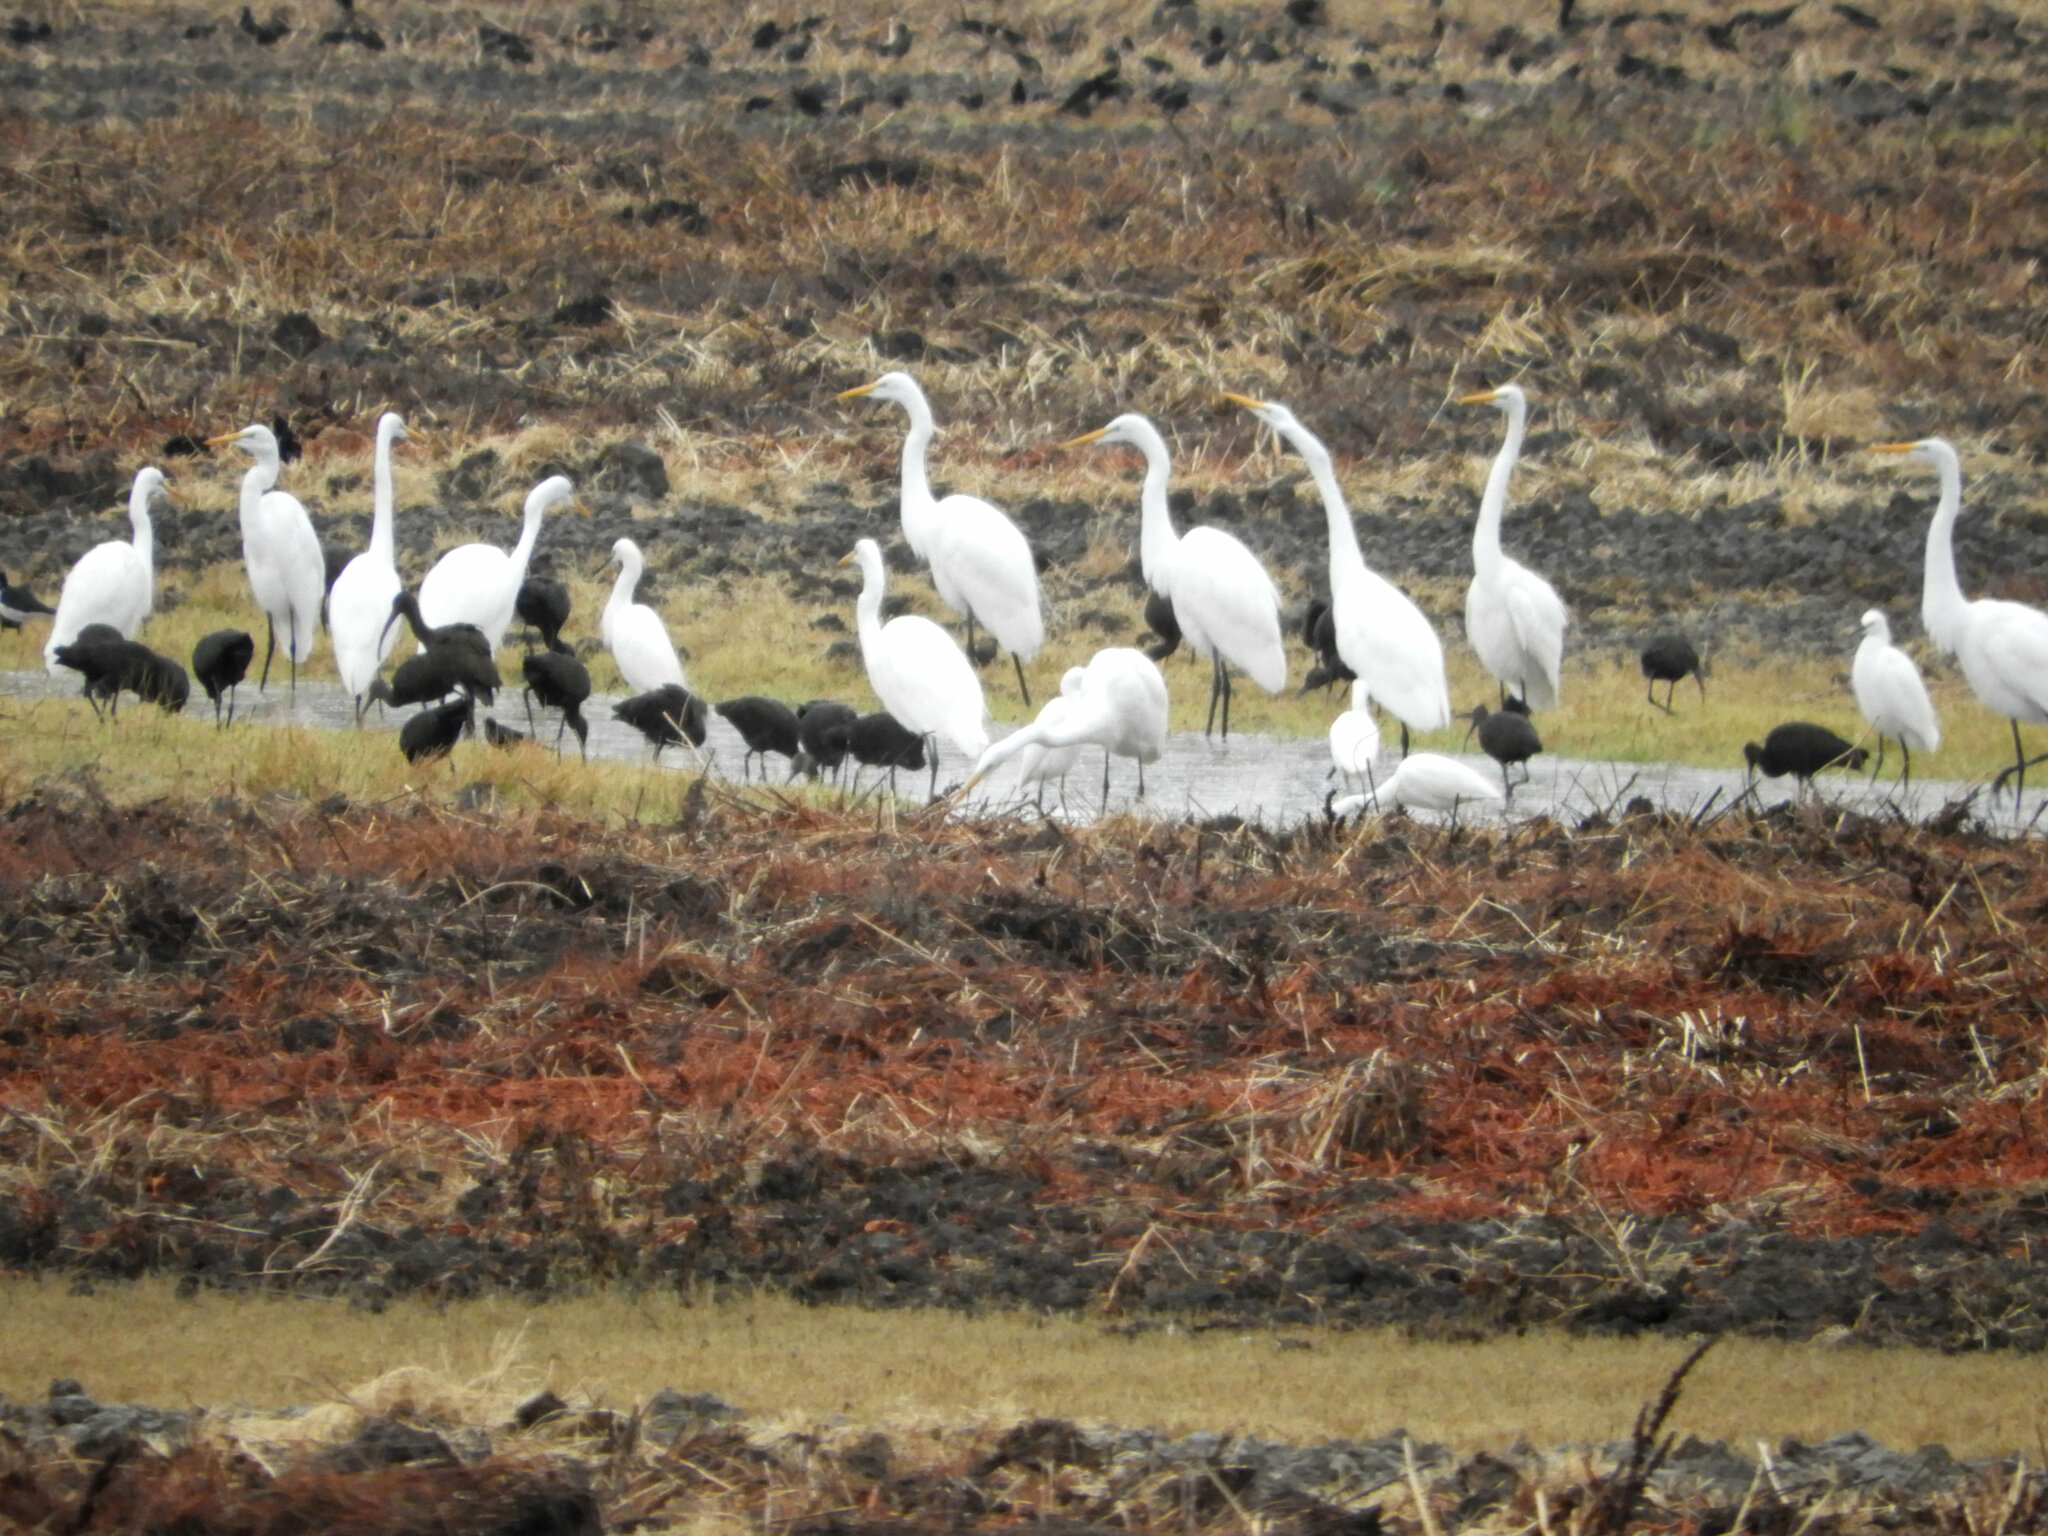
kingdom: Animalia
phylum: Chordata
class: Aves
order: Pelecaniformes
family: Ardeidae
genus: Ardea
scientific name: Ardea alba
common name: Great egret
